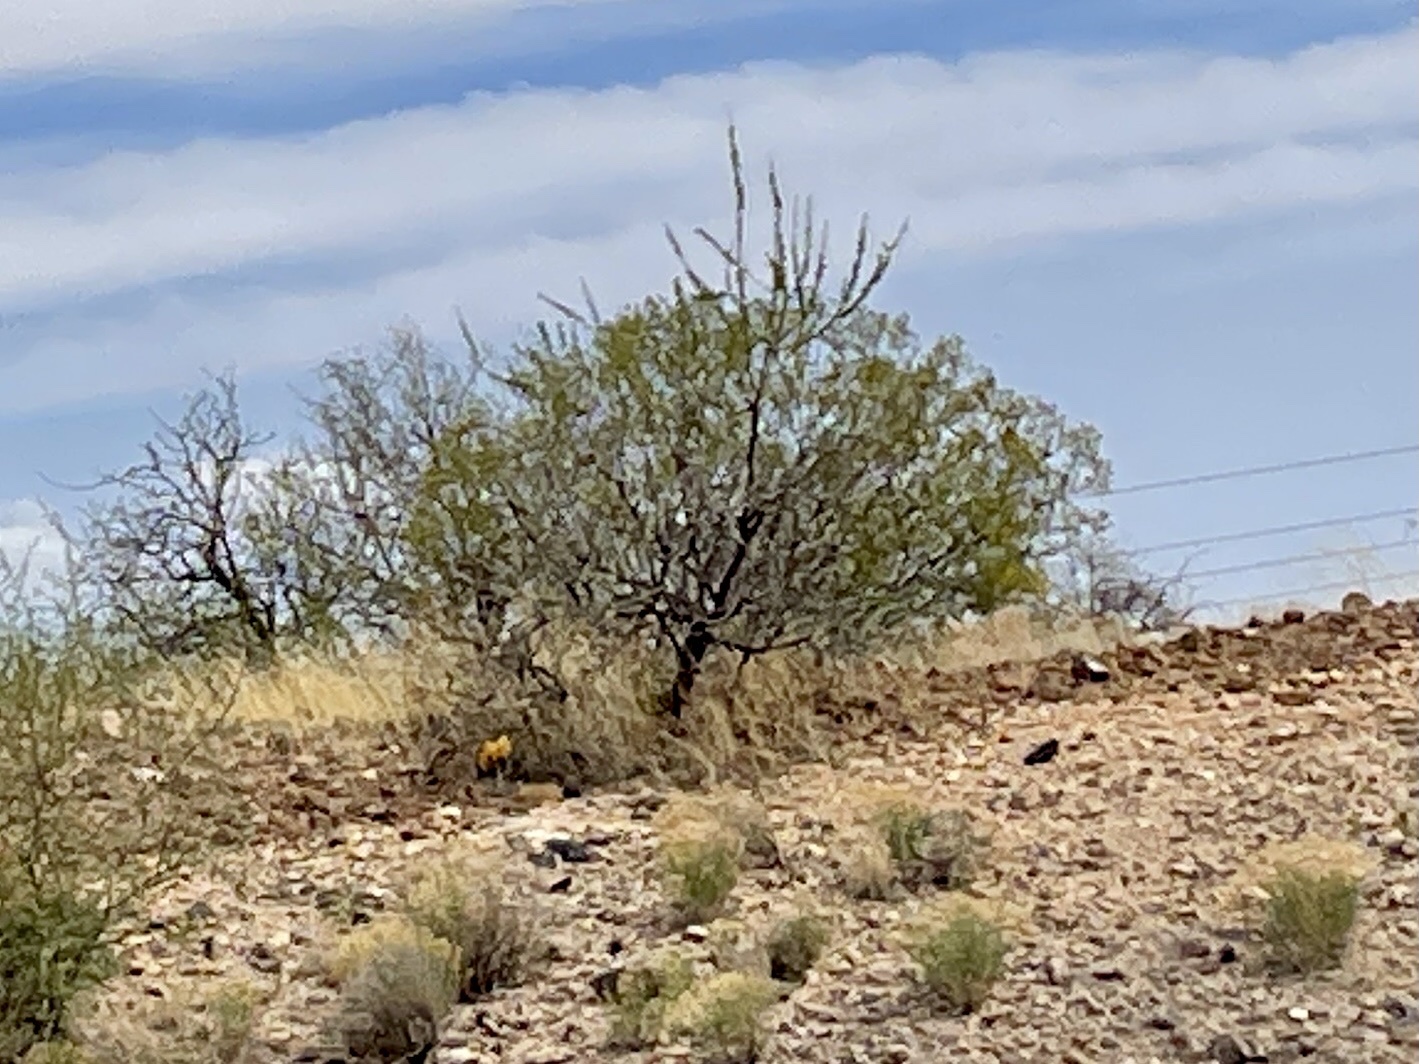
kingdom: Plantae
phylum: Tracheophyta
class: Magnoliopsida
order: Zygophyllales
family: Zygophyllaceae
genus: Larrea
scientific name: Larrea tridentata
